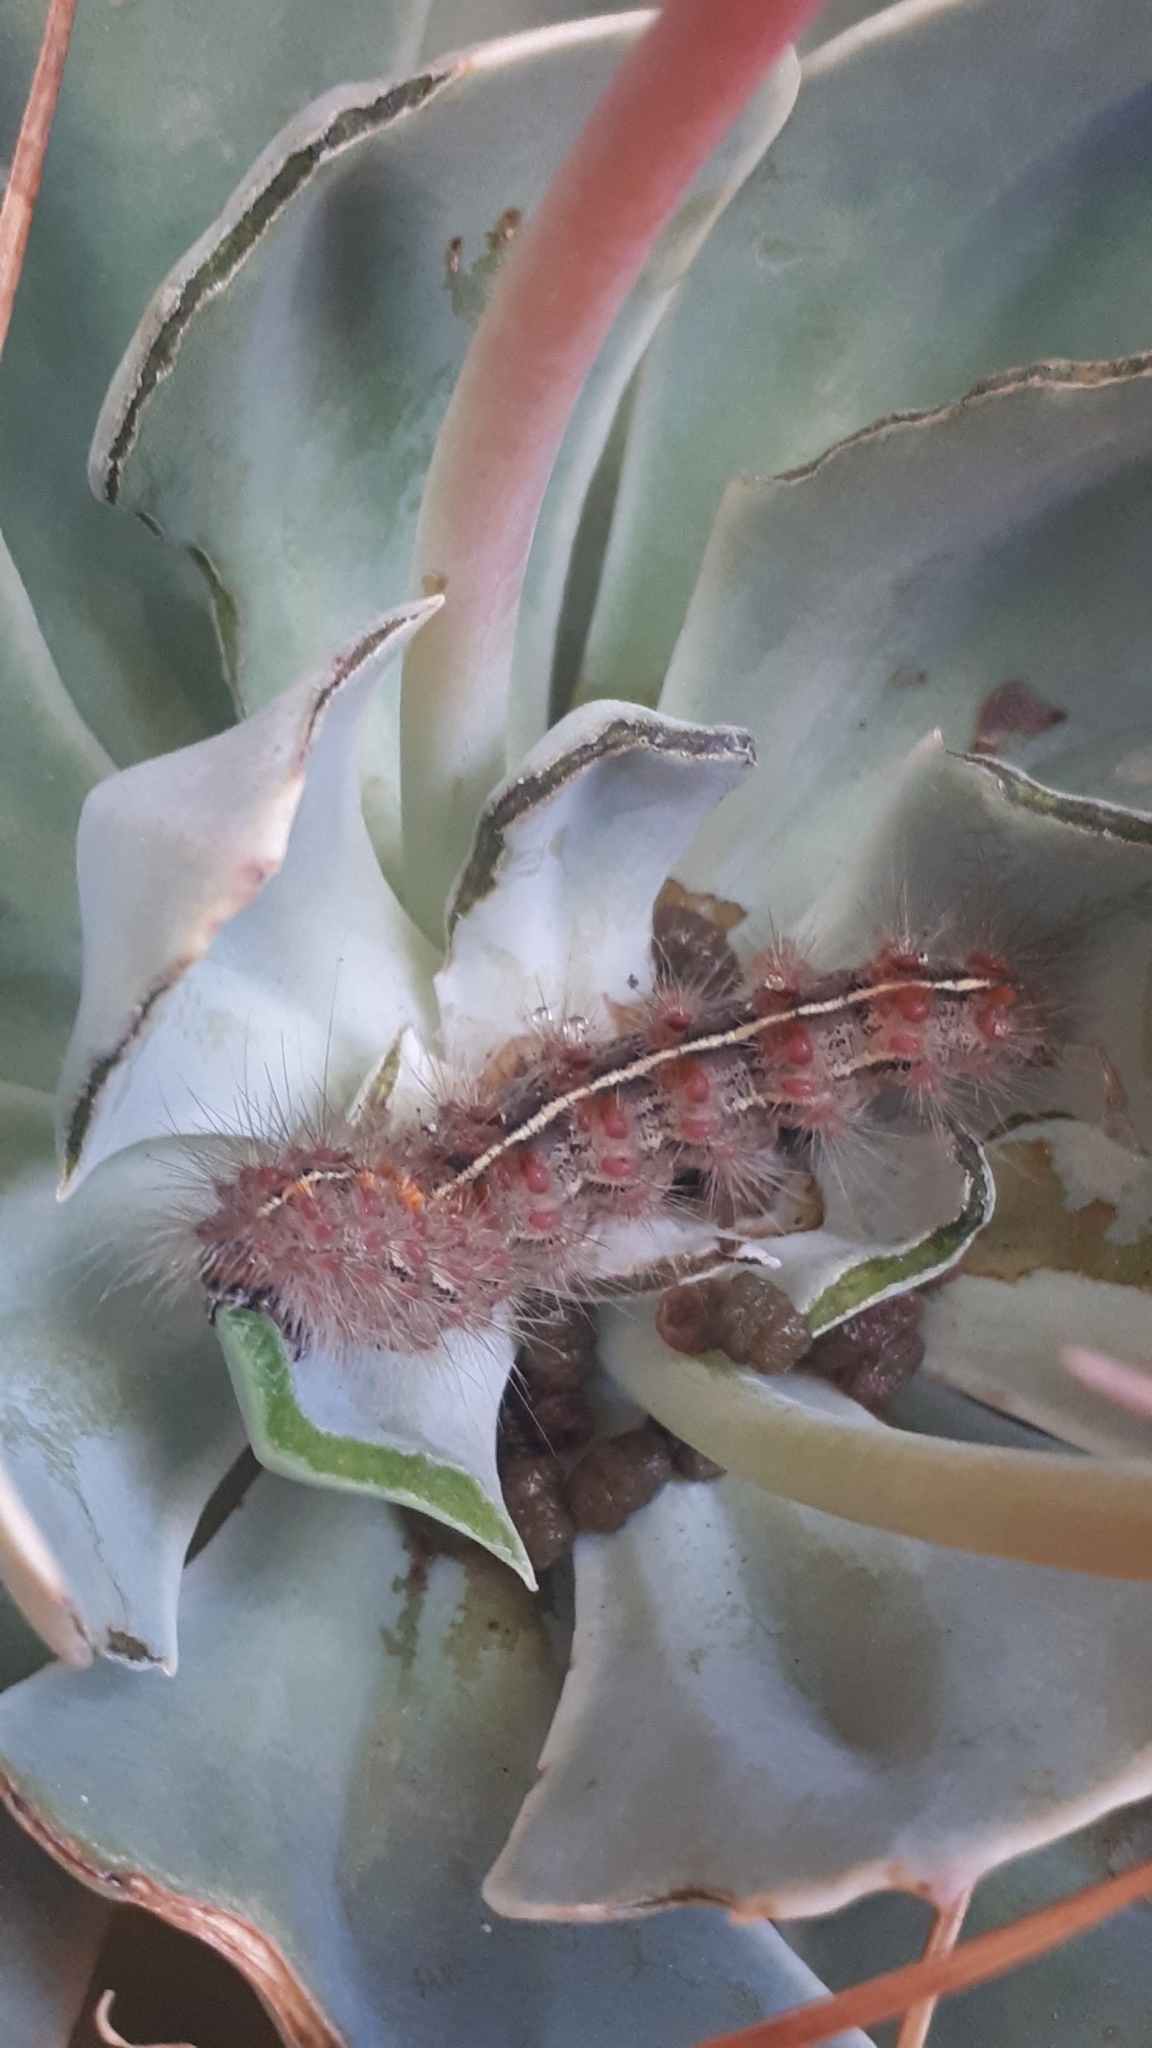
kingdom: Animalia
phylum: Arthropoda
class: Insecta
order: Lepidoptera
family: Erebidae
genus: Paracles
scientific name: Paracles fusca
